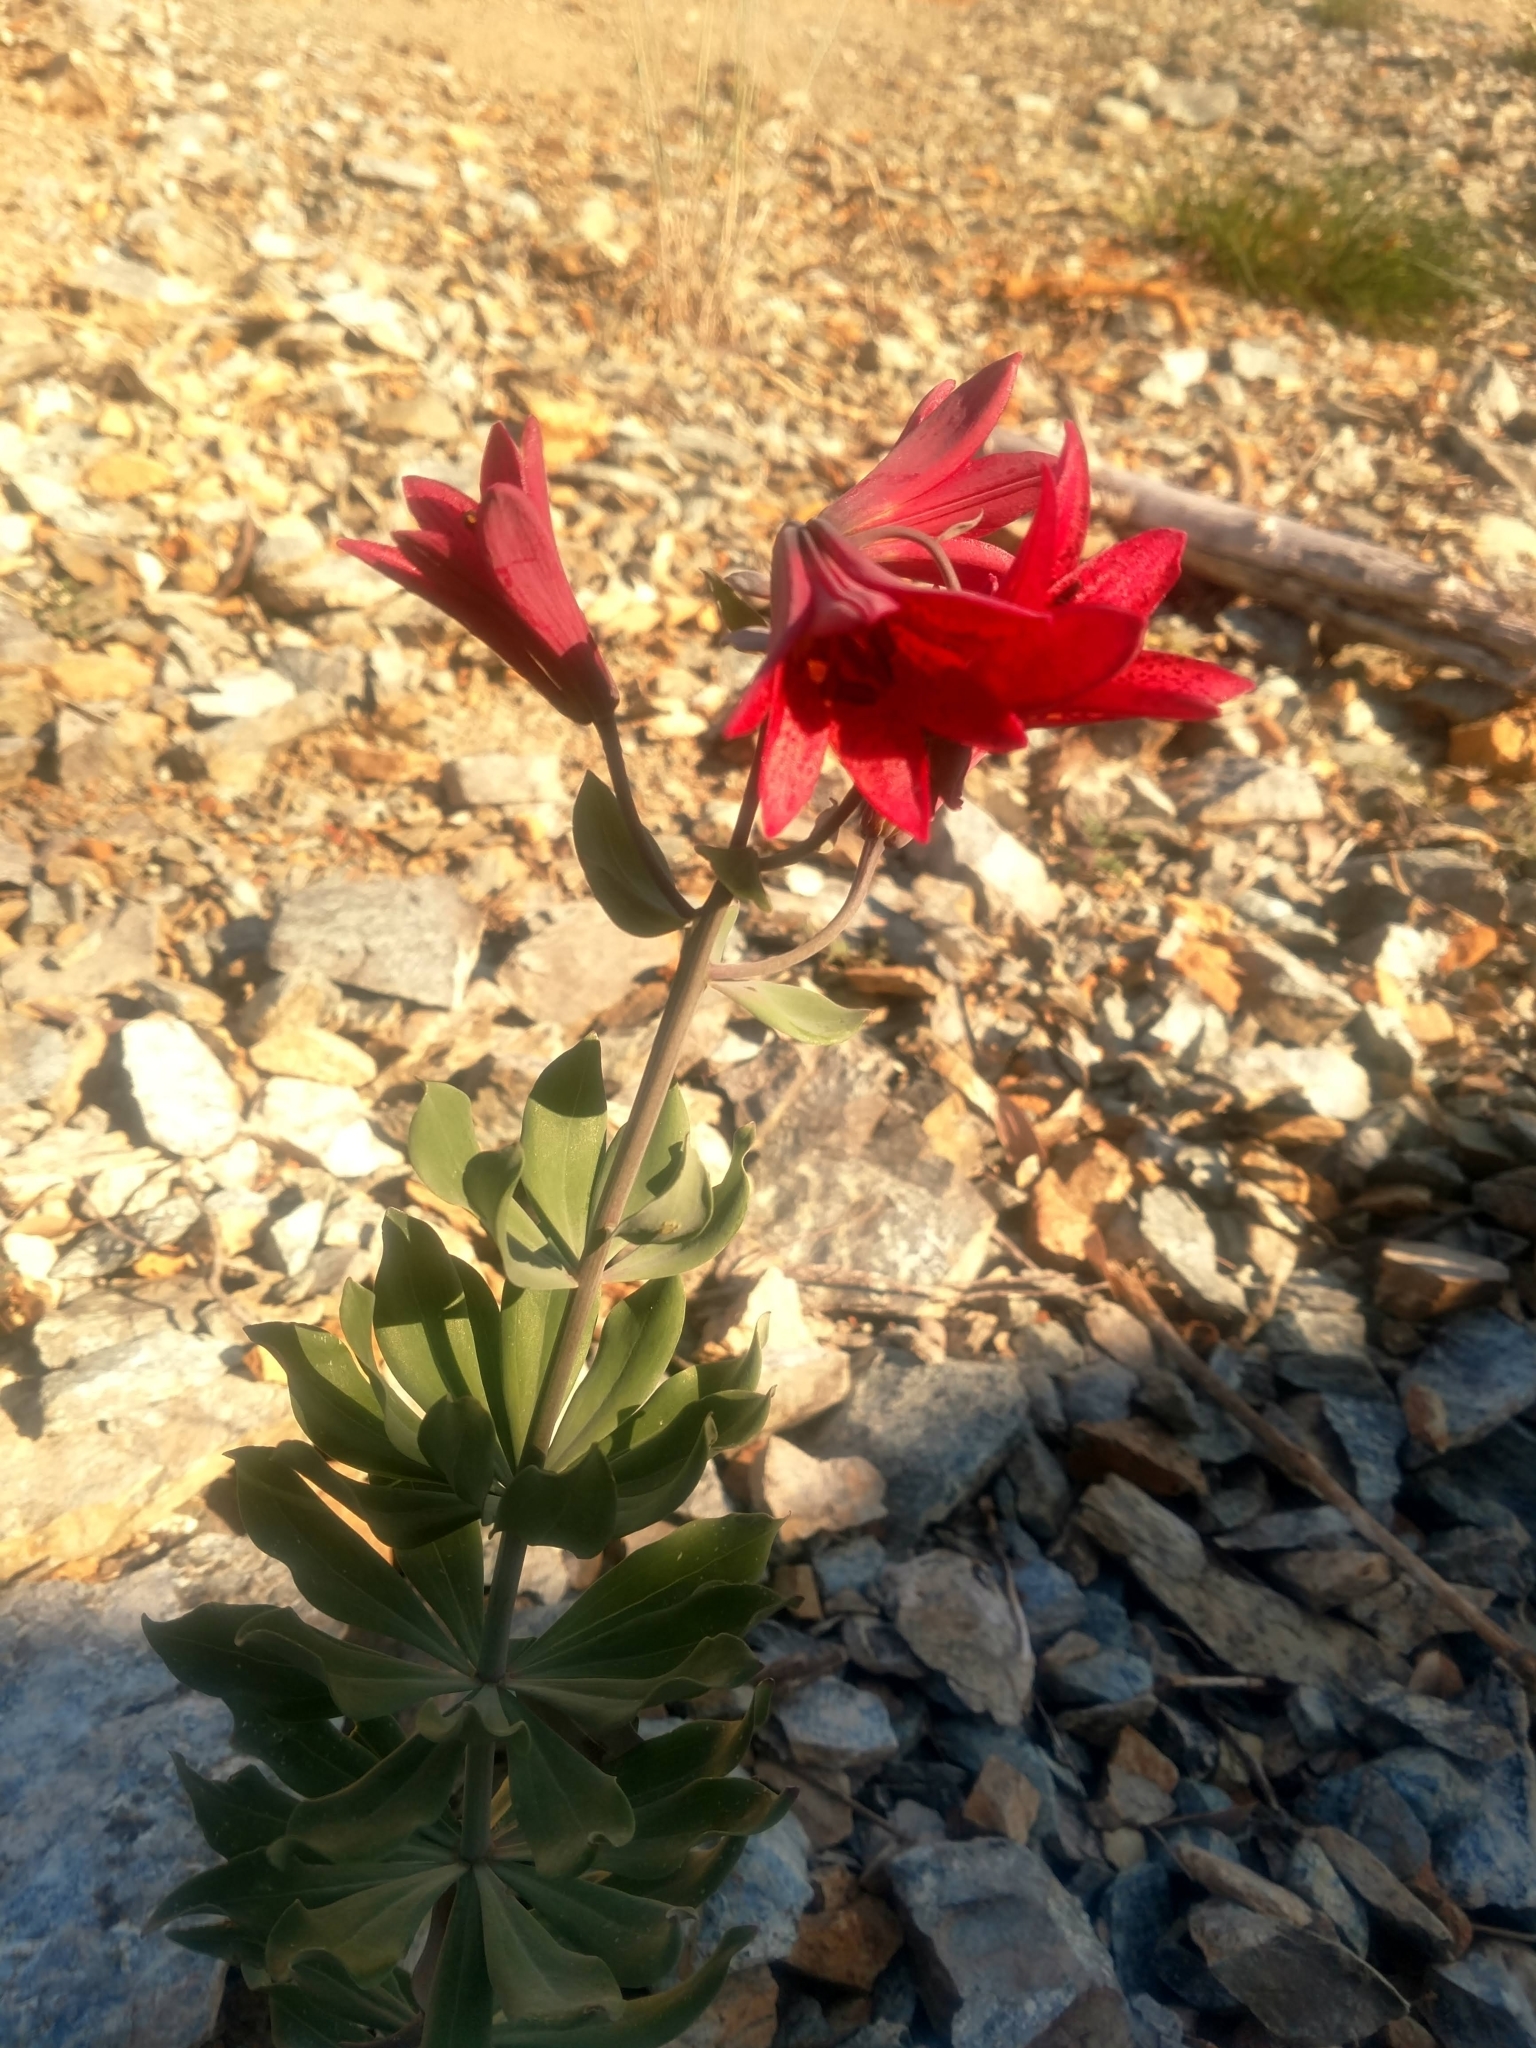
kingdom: Plantae
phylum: Tracheophyta
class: Liliopsida
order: Liliales
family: Liliaceae
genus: Lilium
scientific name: Lilium bolanderi
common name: Bolander's lily
